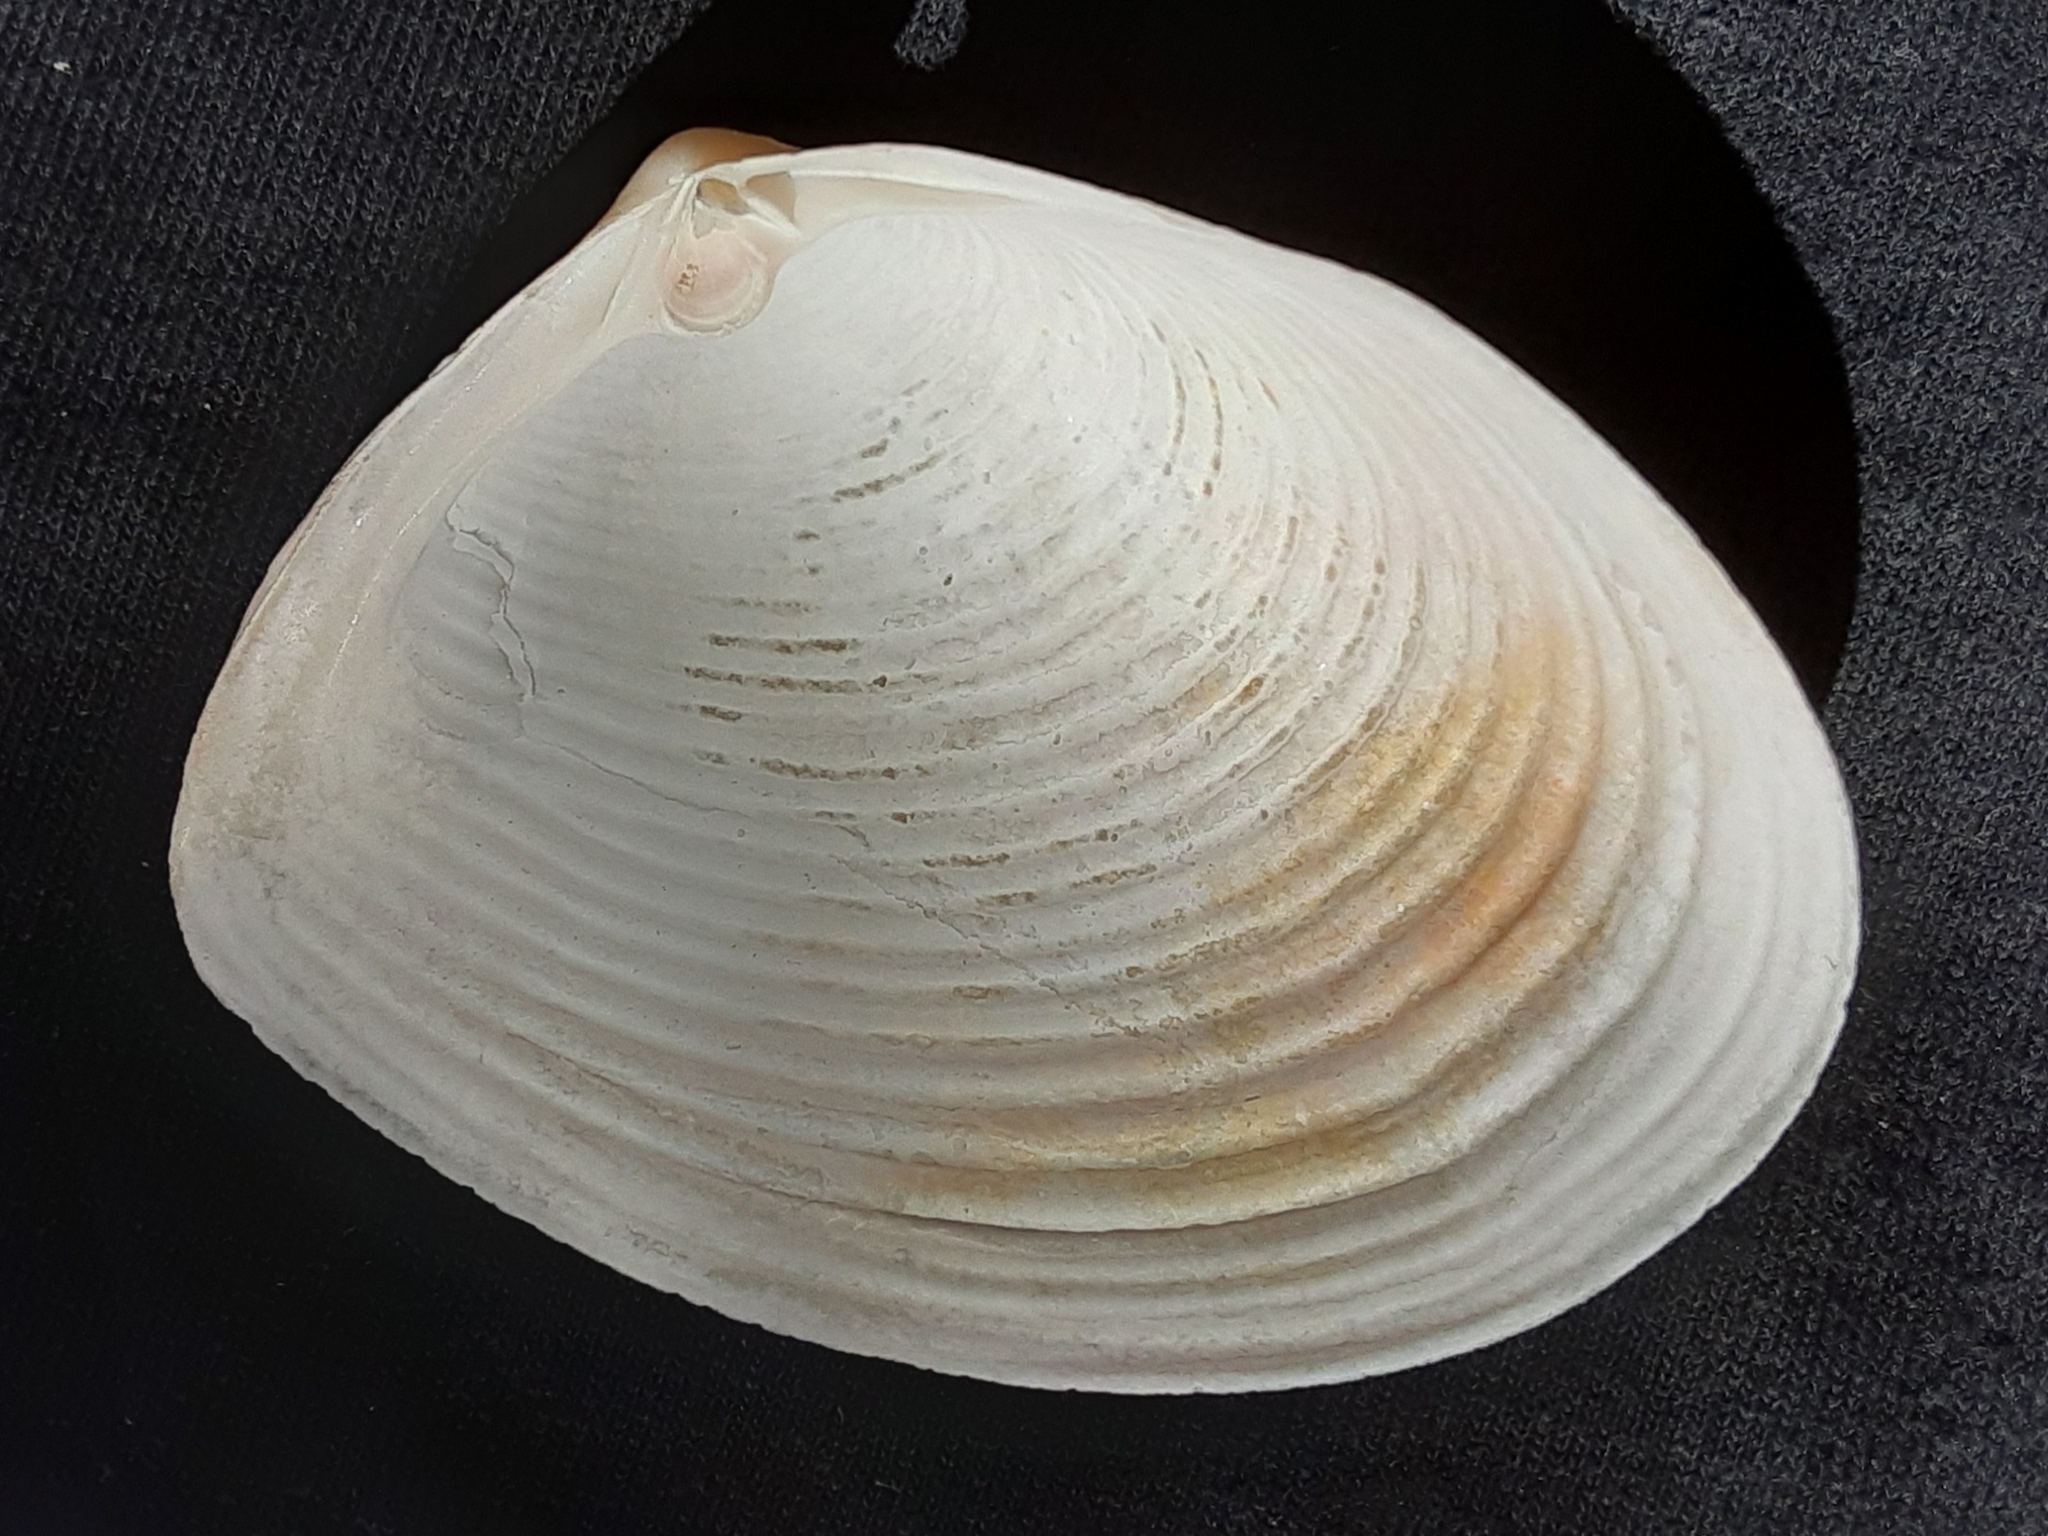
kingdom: Animalia
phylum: Mollusca
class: Bivalvia
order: Venerida
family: Anatinellidae
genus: Raeta
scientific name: Raeta plicatella
